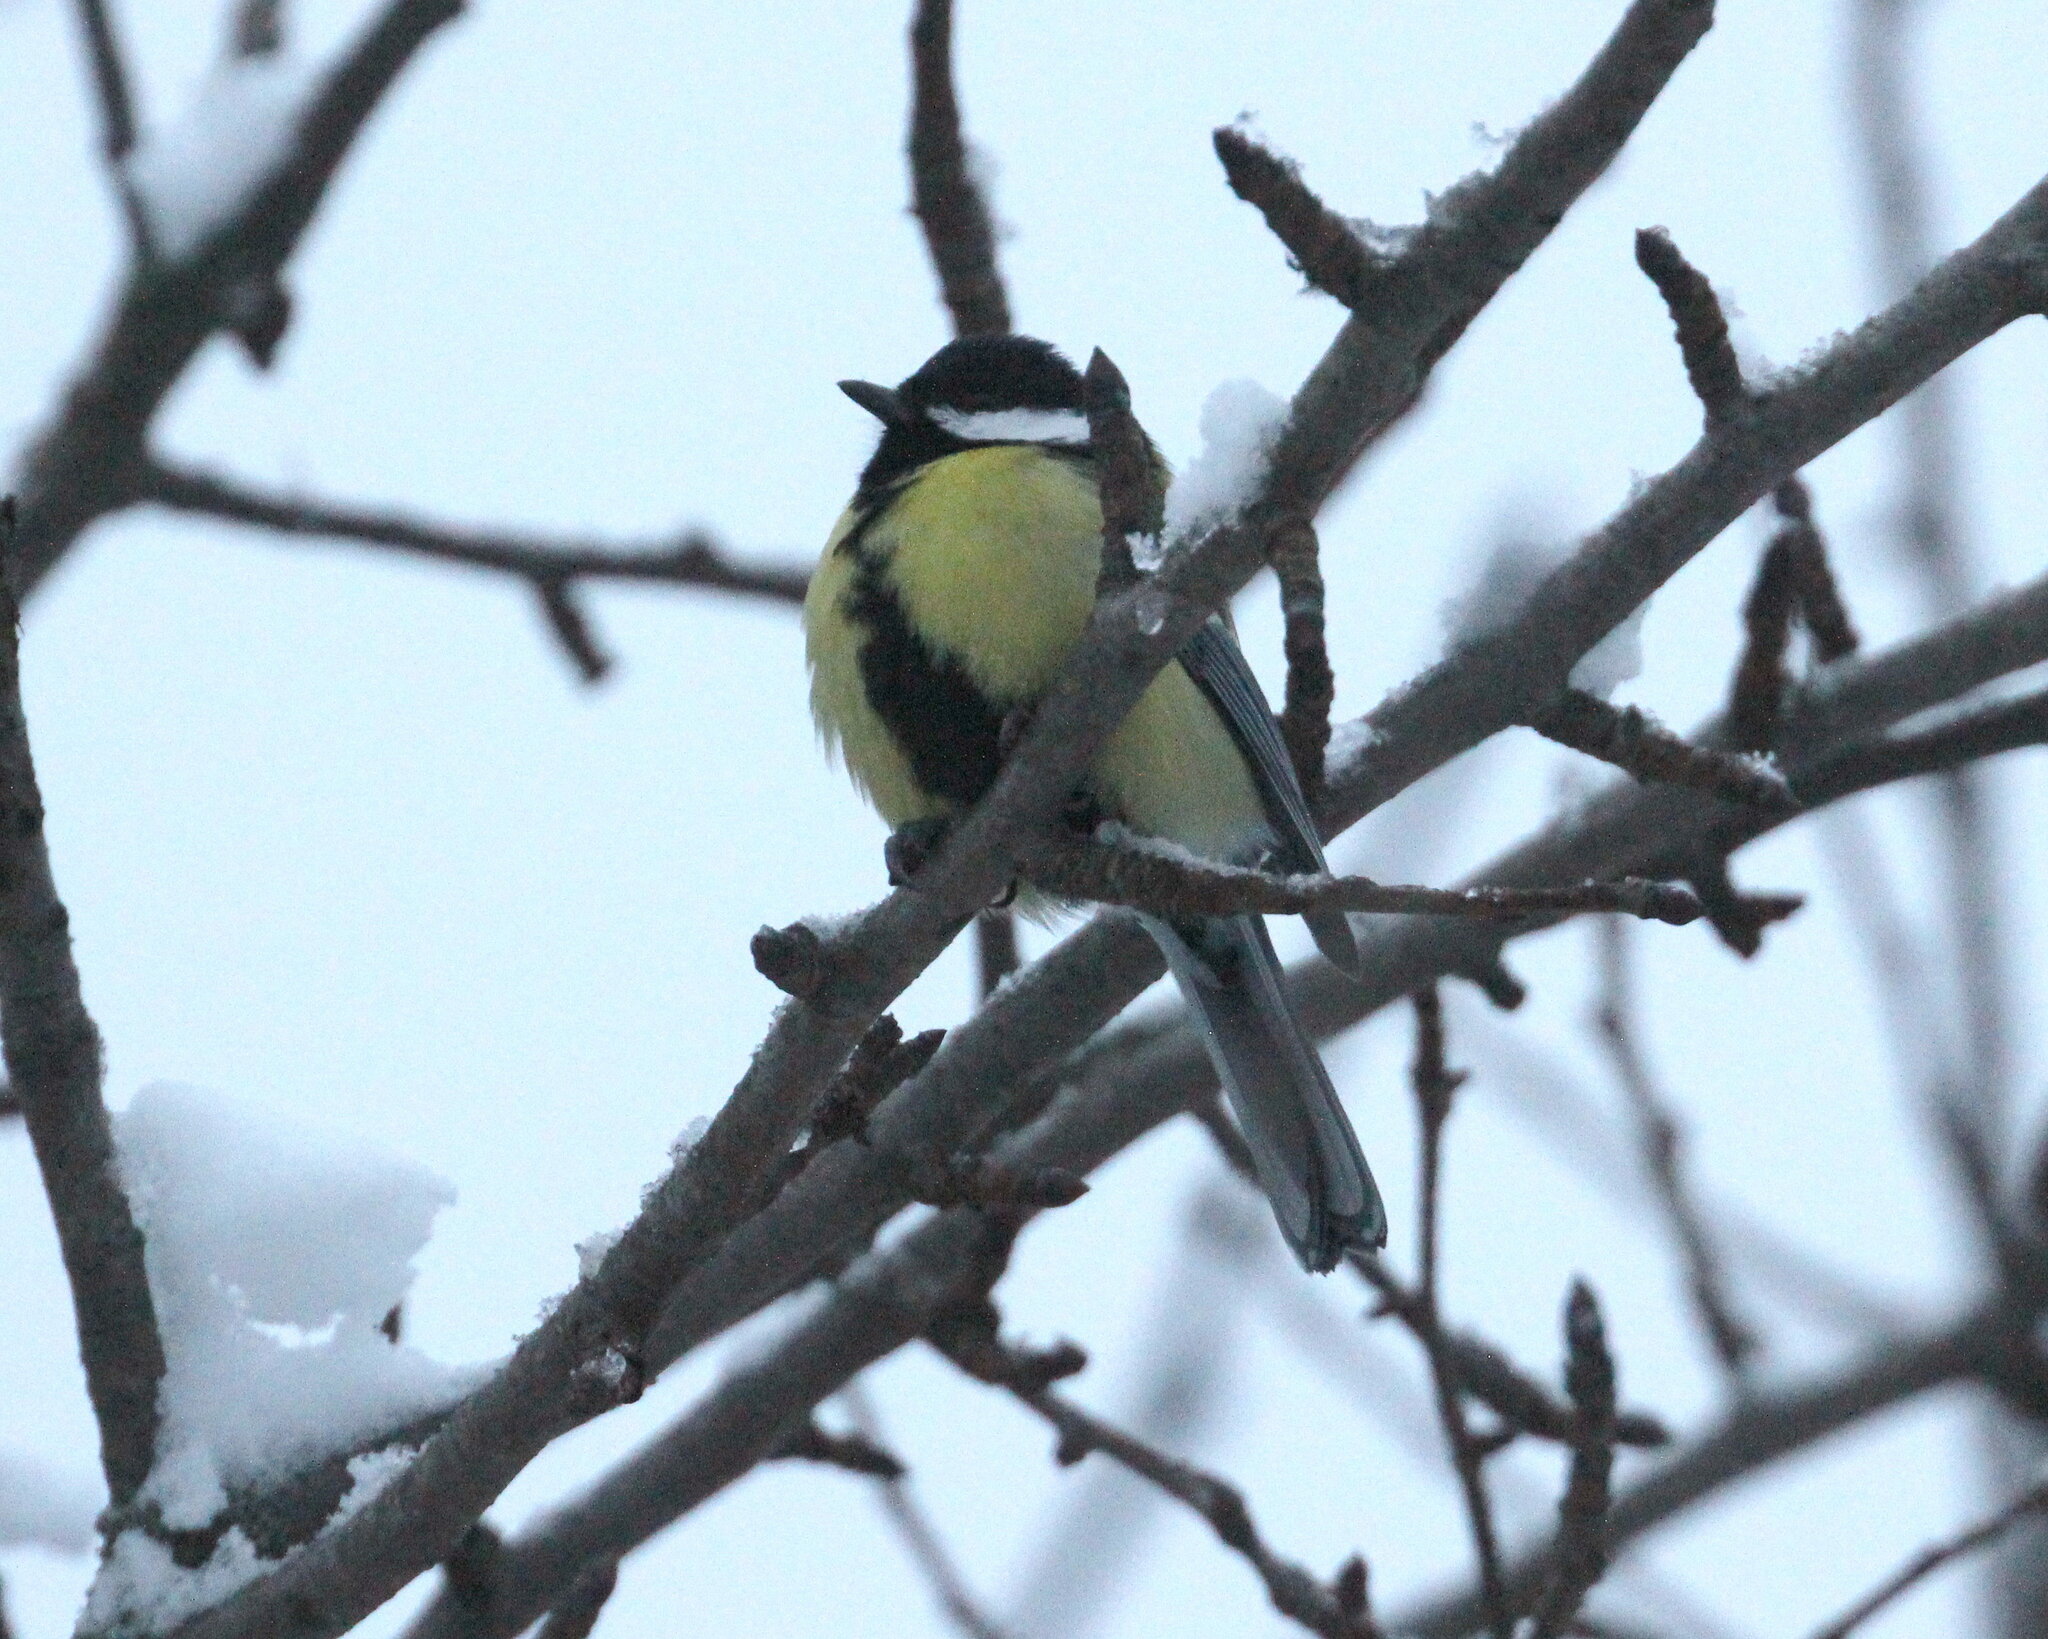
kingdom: Animalia
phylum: Chordata
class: Aves
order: Passeriformes
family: Paridae
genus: Parus
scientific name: Parus major
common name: Great tit
